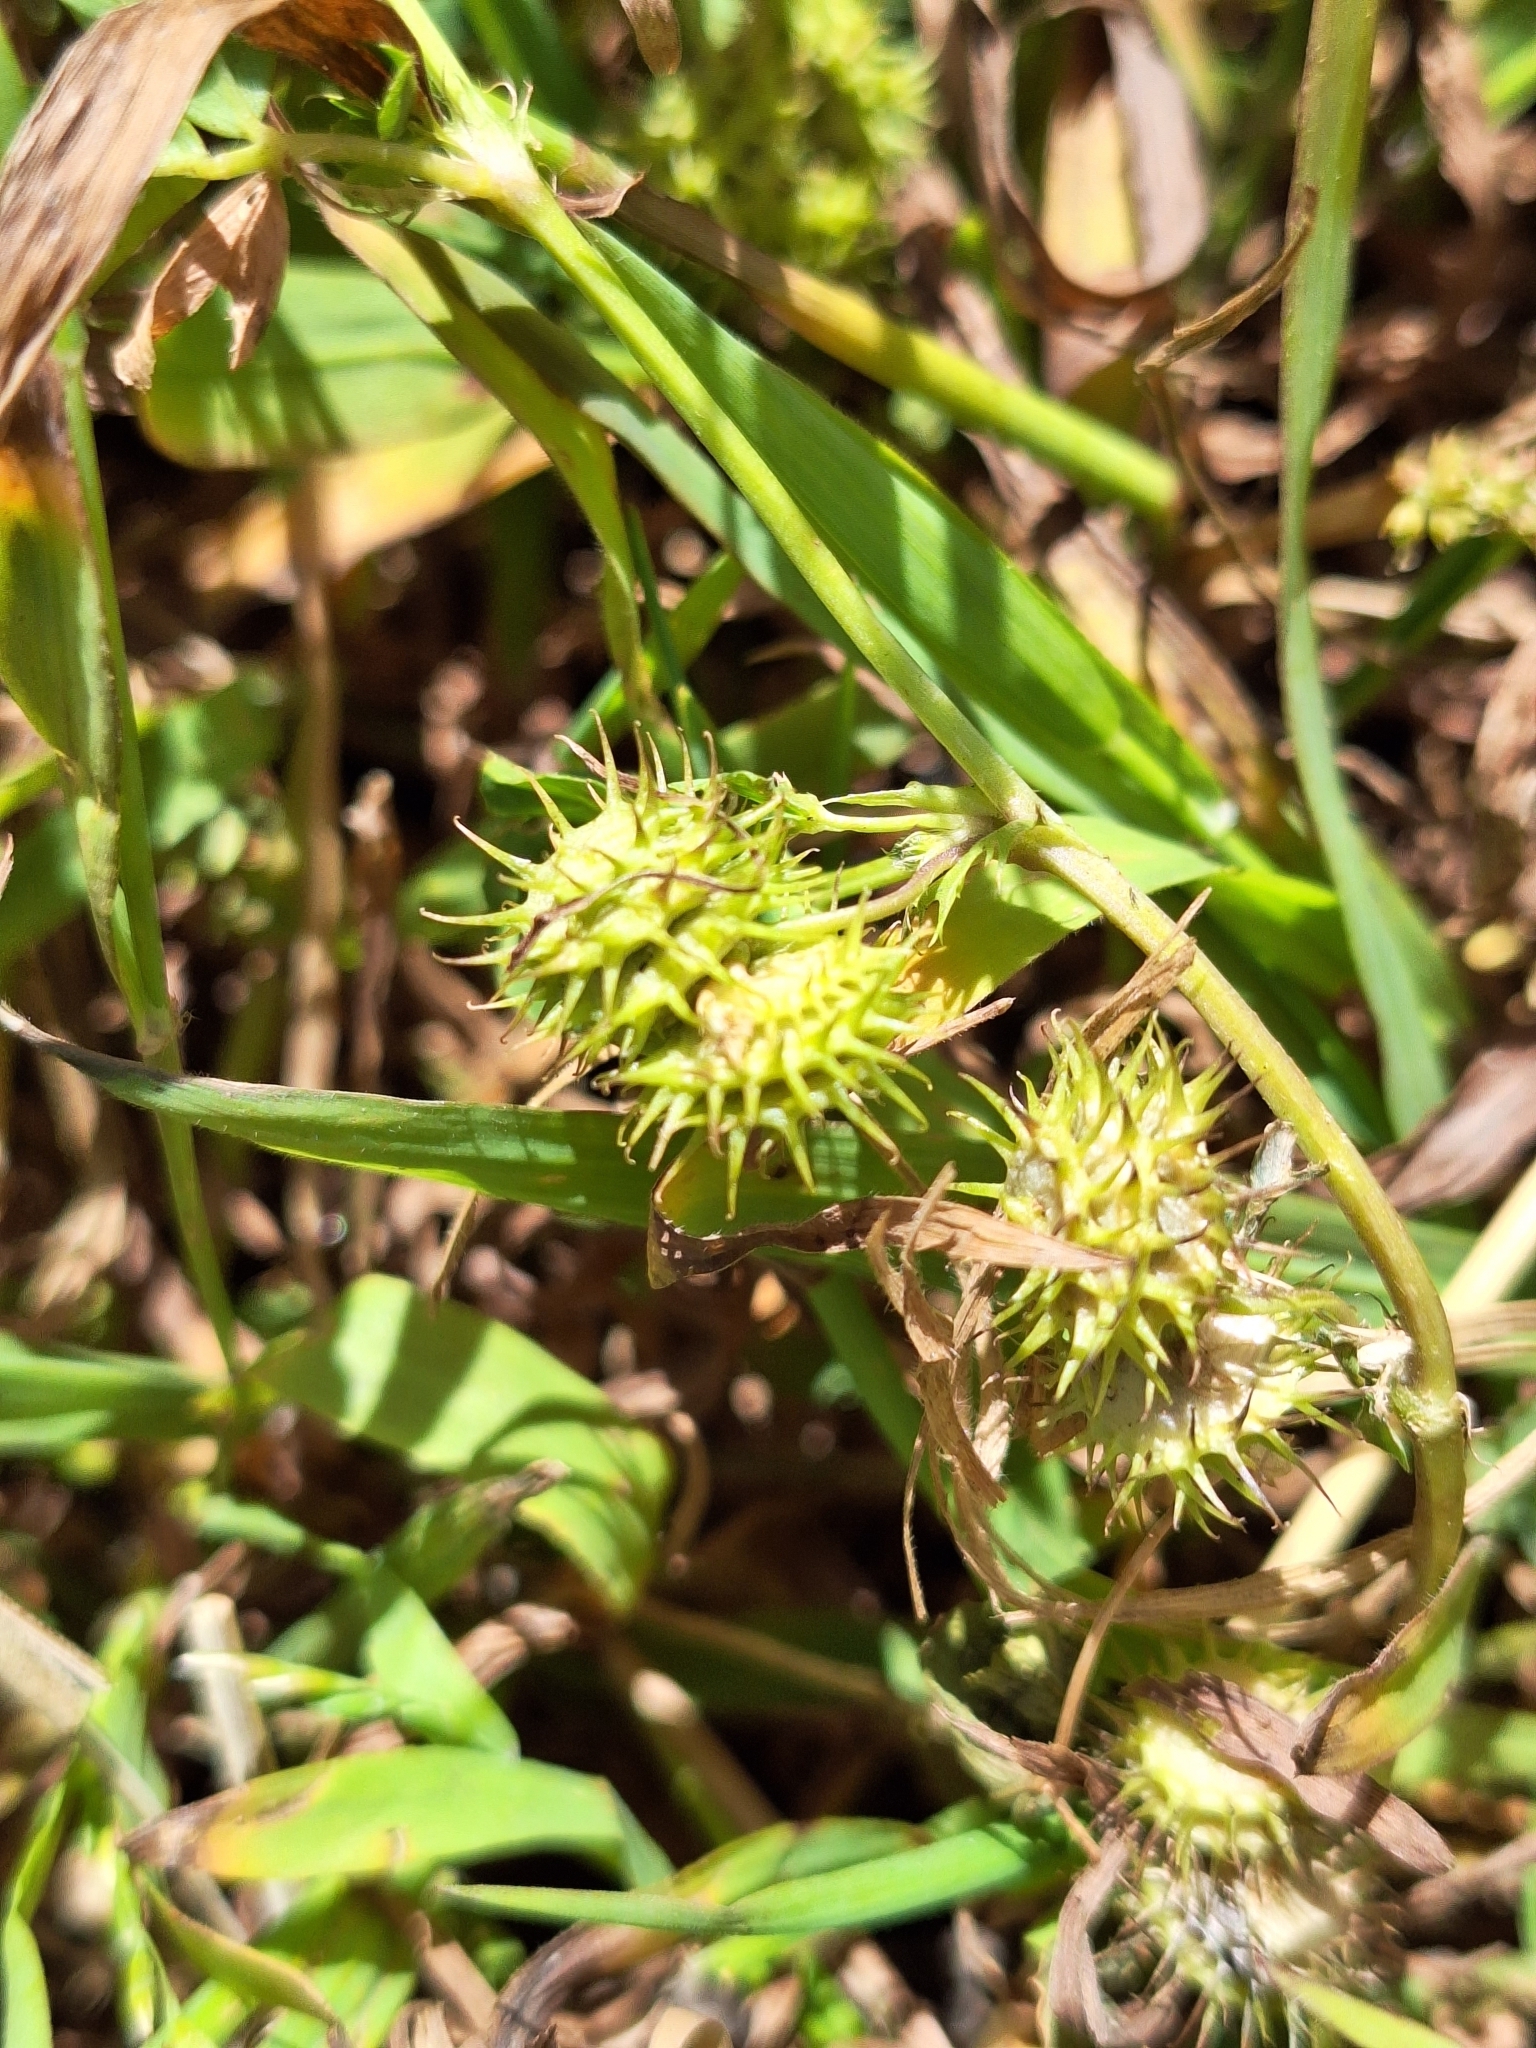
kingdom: Plantae
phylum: Tracheophyta
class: Magnoliopsida
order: Fabales
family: Fabaceae
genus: Medicago
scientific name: Medicago polymorpha
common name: Burclover
